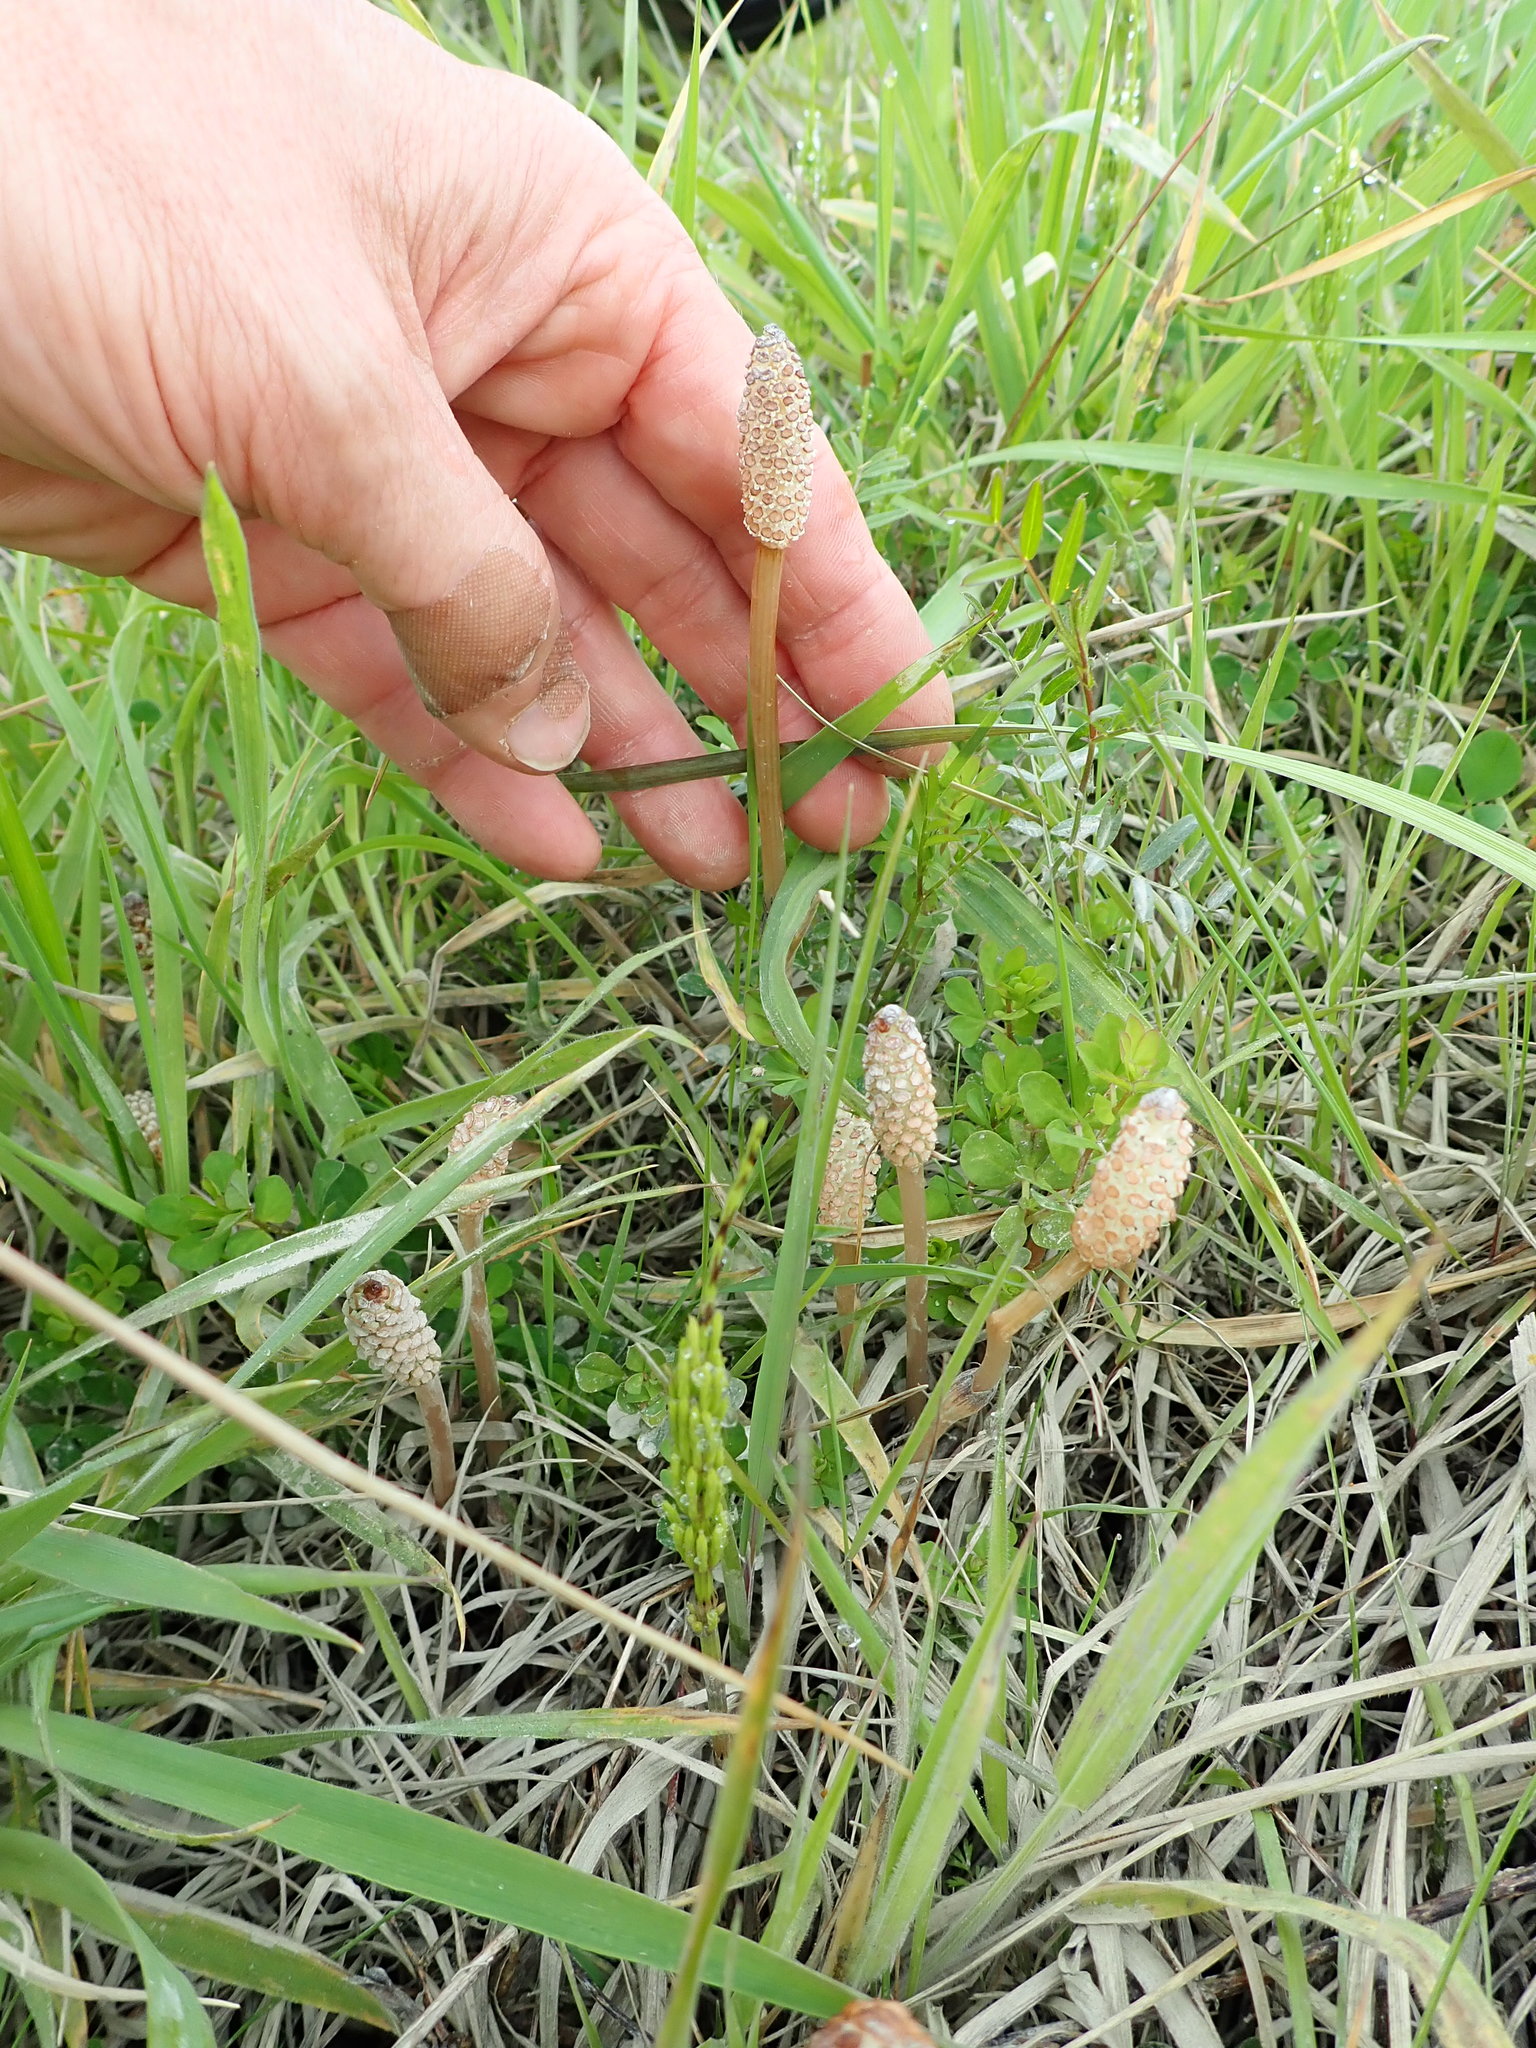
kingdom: Plantae
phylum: Tracheophyta
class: Polypodiopsida
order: Equisetales
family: Equisetaceae
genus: Equisetum
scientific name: Equisetum arvense
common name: Field horsetail
